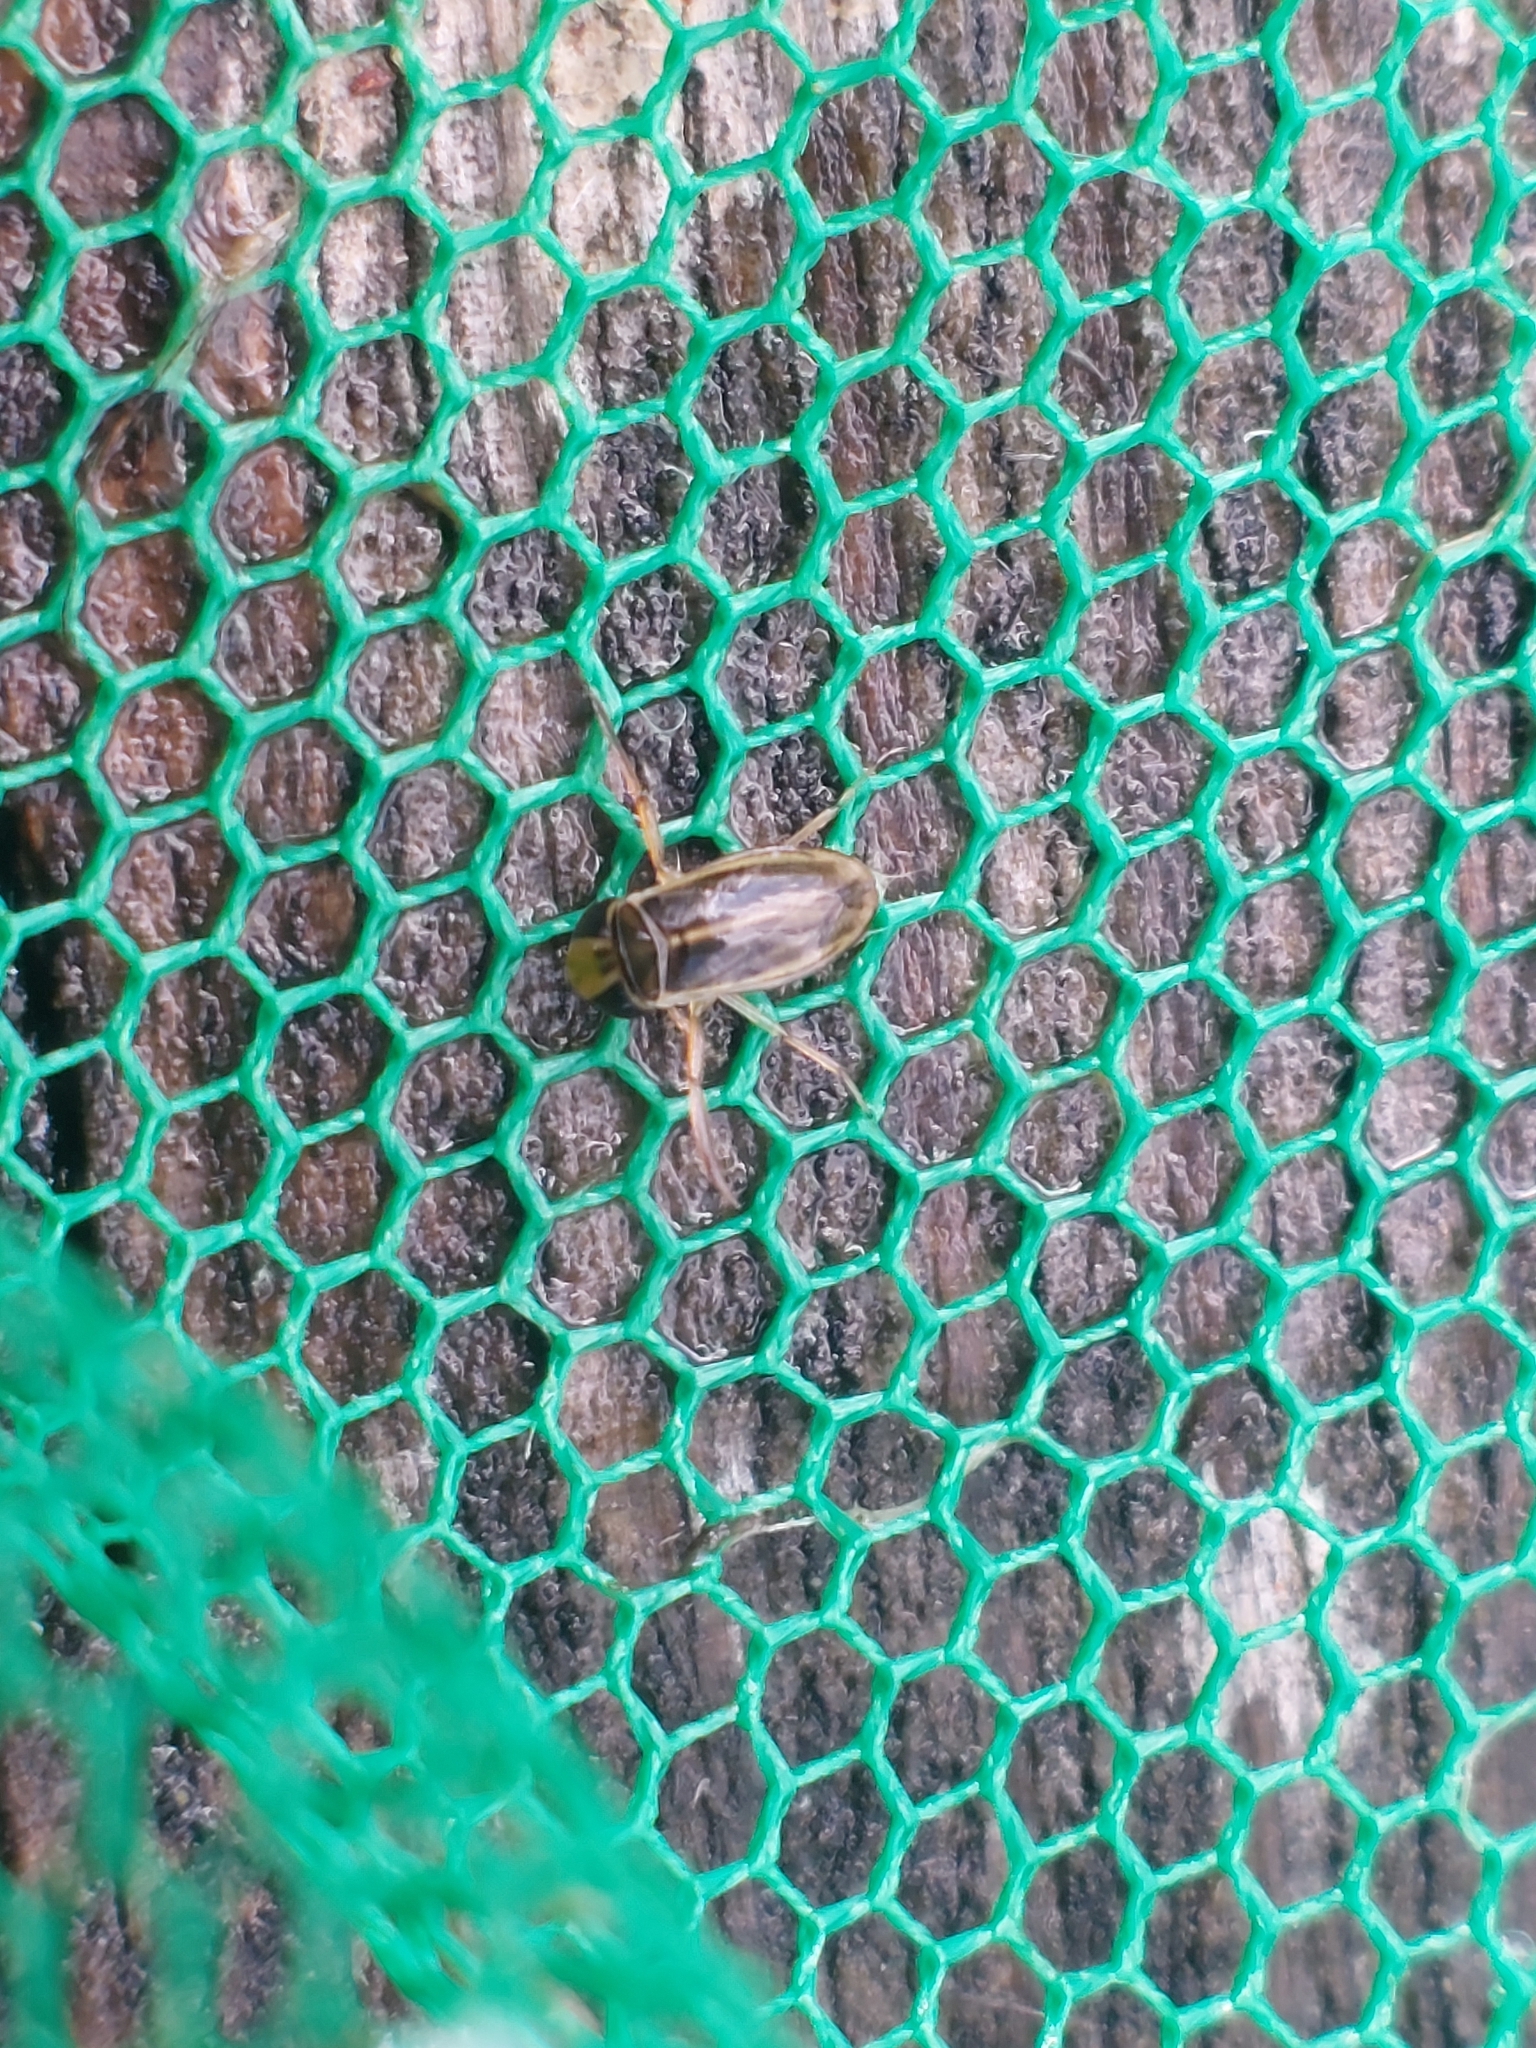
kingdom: Animalia
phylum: Arthropoda
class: Insecta
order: Hemiptera
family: Corixidae
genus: Cymatia
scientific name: Cymatia coleoptrata
